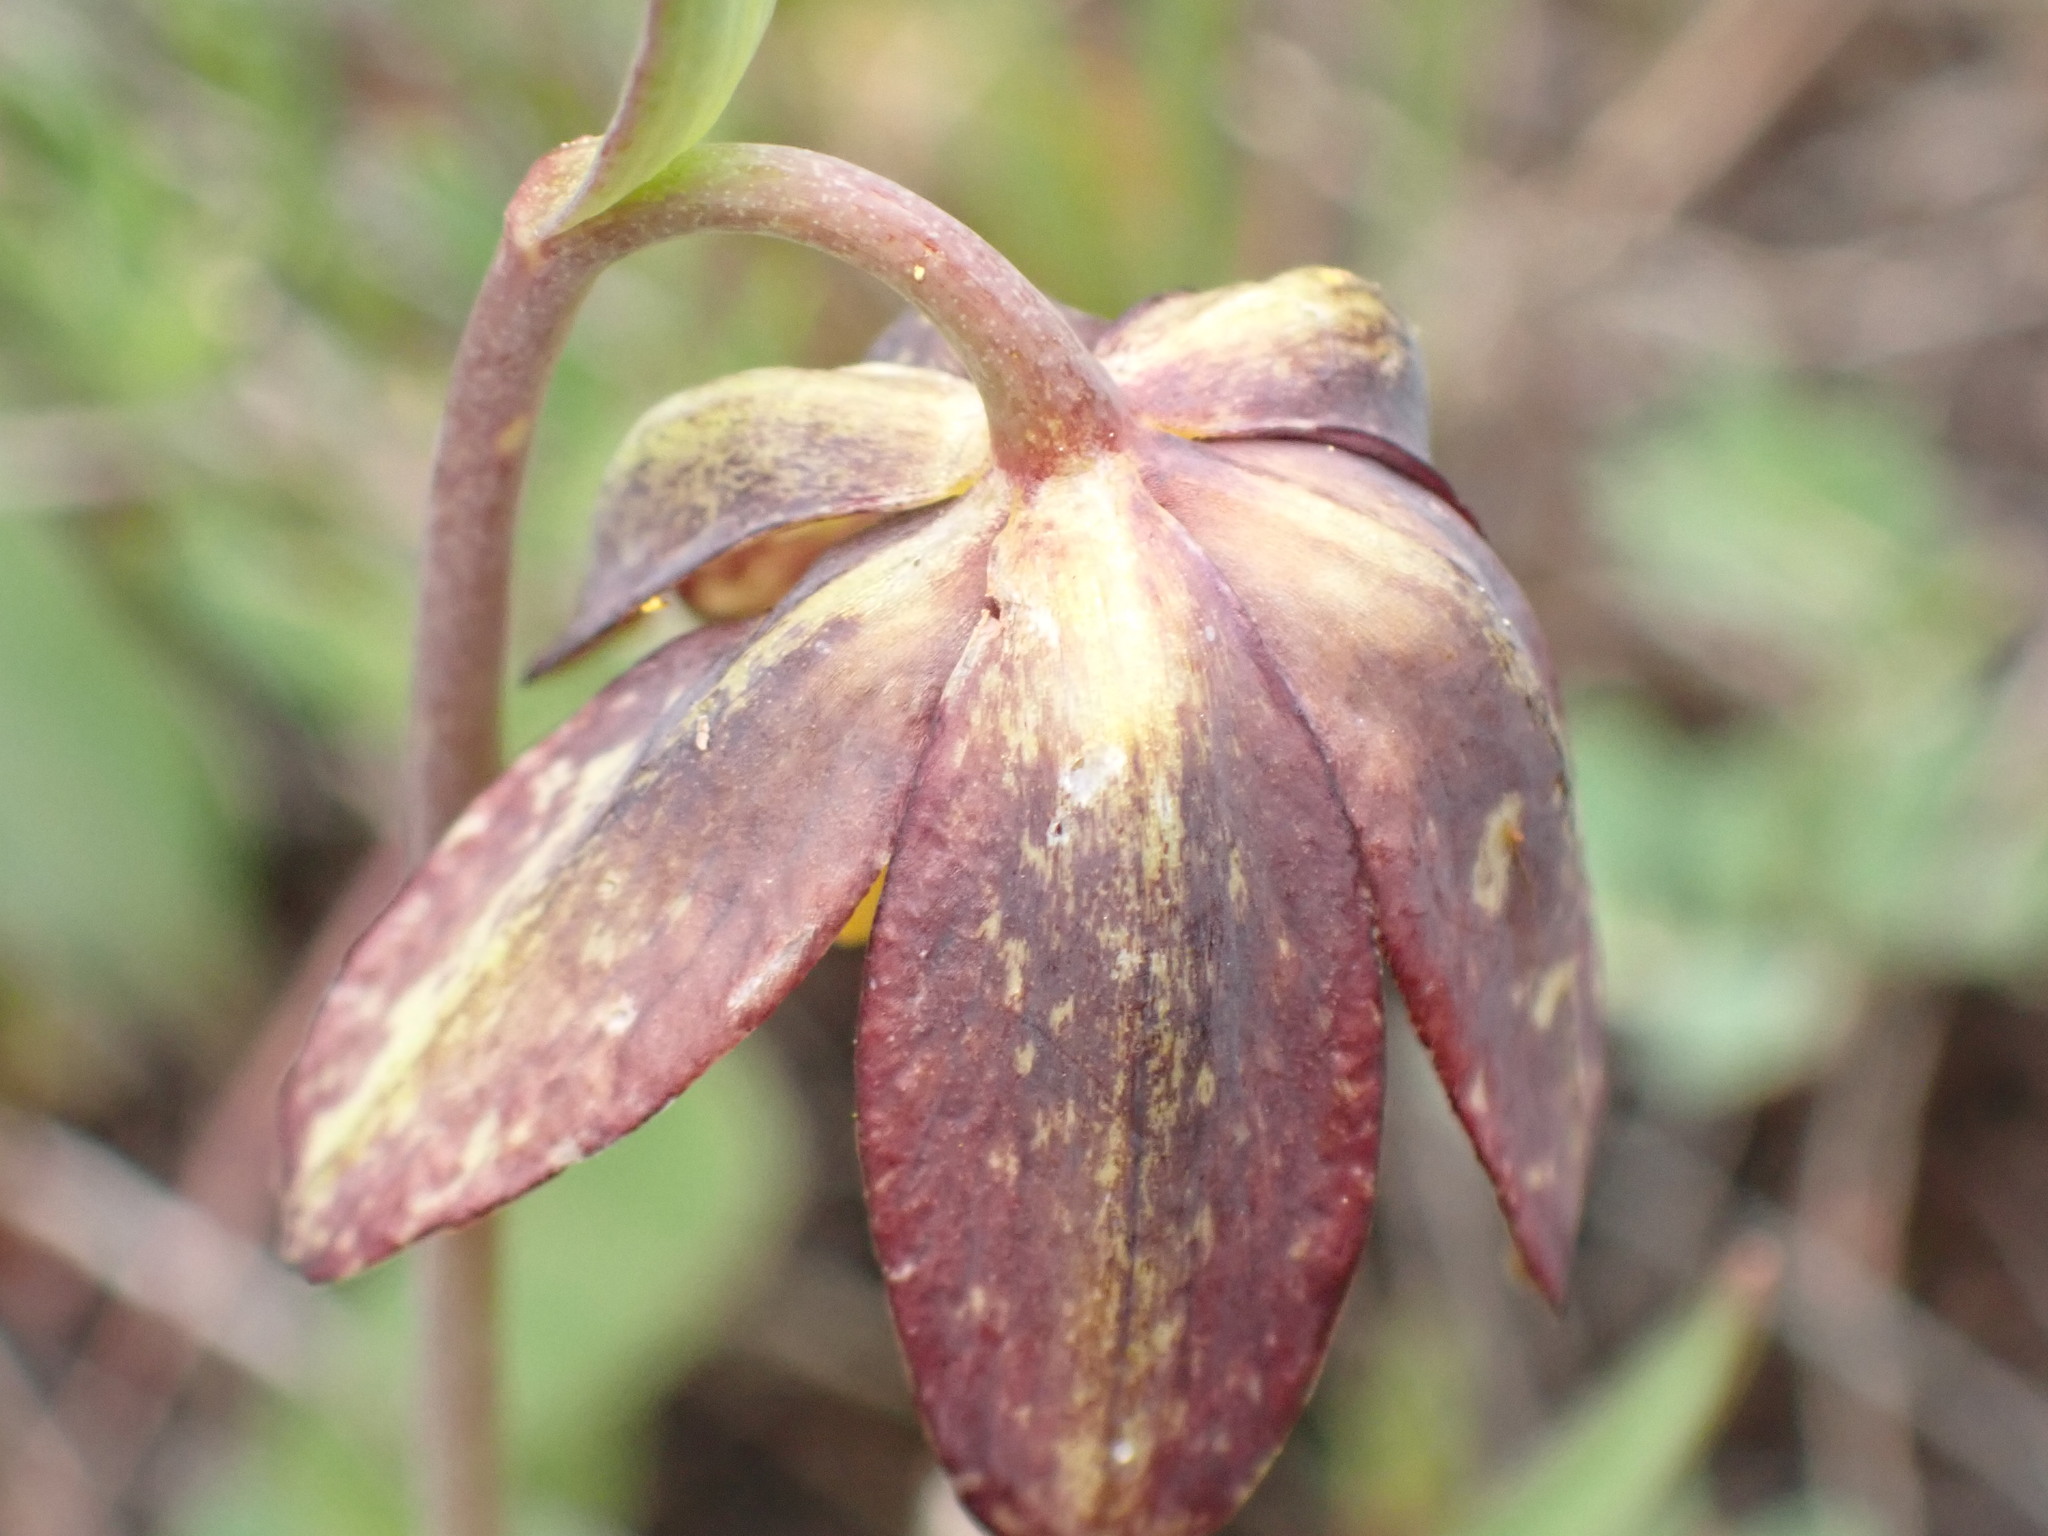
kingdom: Plantae
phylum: Tracheophyta
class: Liliopsida
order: Liliales
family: Liliaceae
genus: Fritillaria
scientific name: Fritillaria affinis
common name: Ojai fritillary
